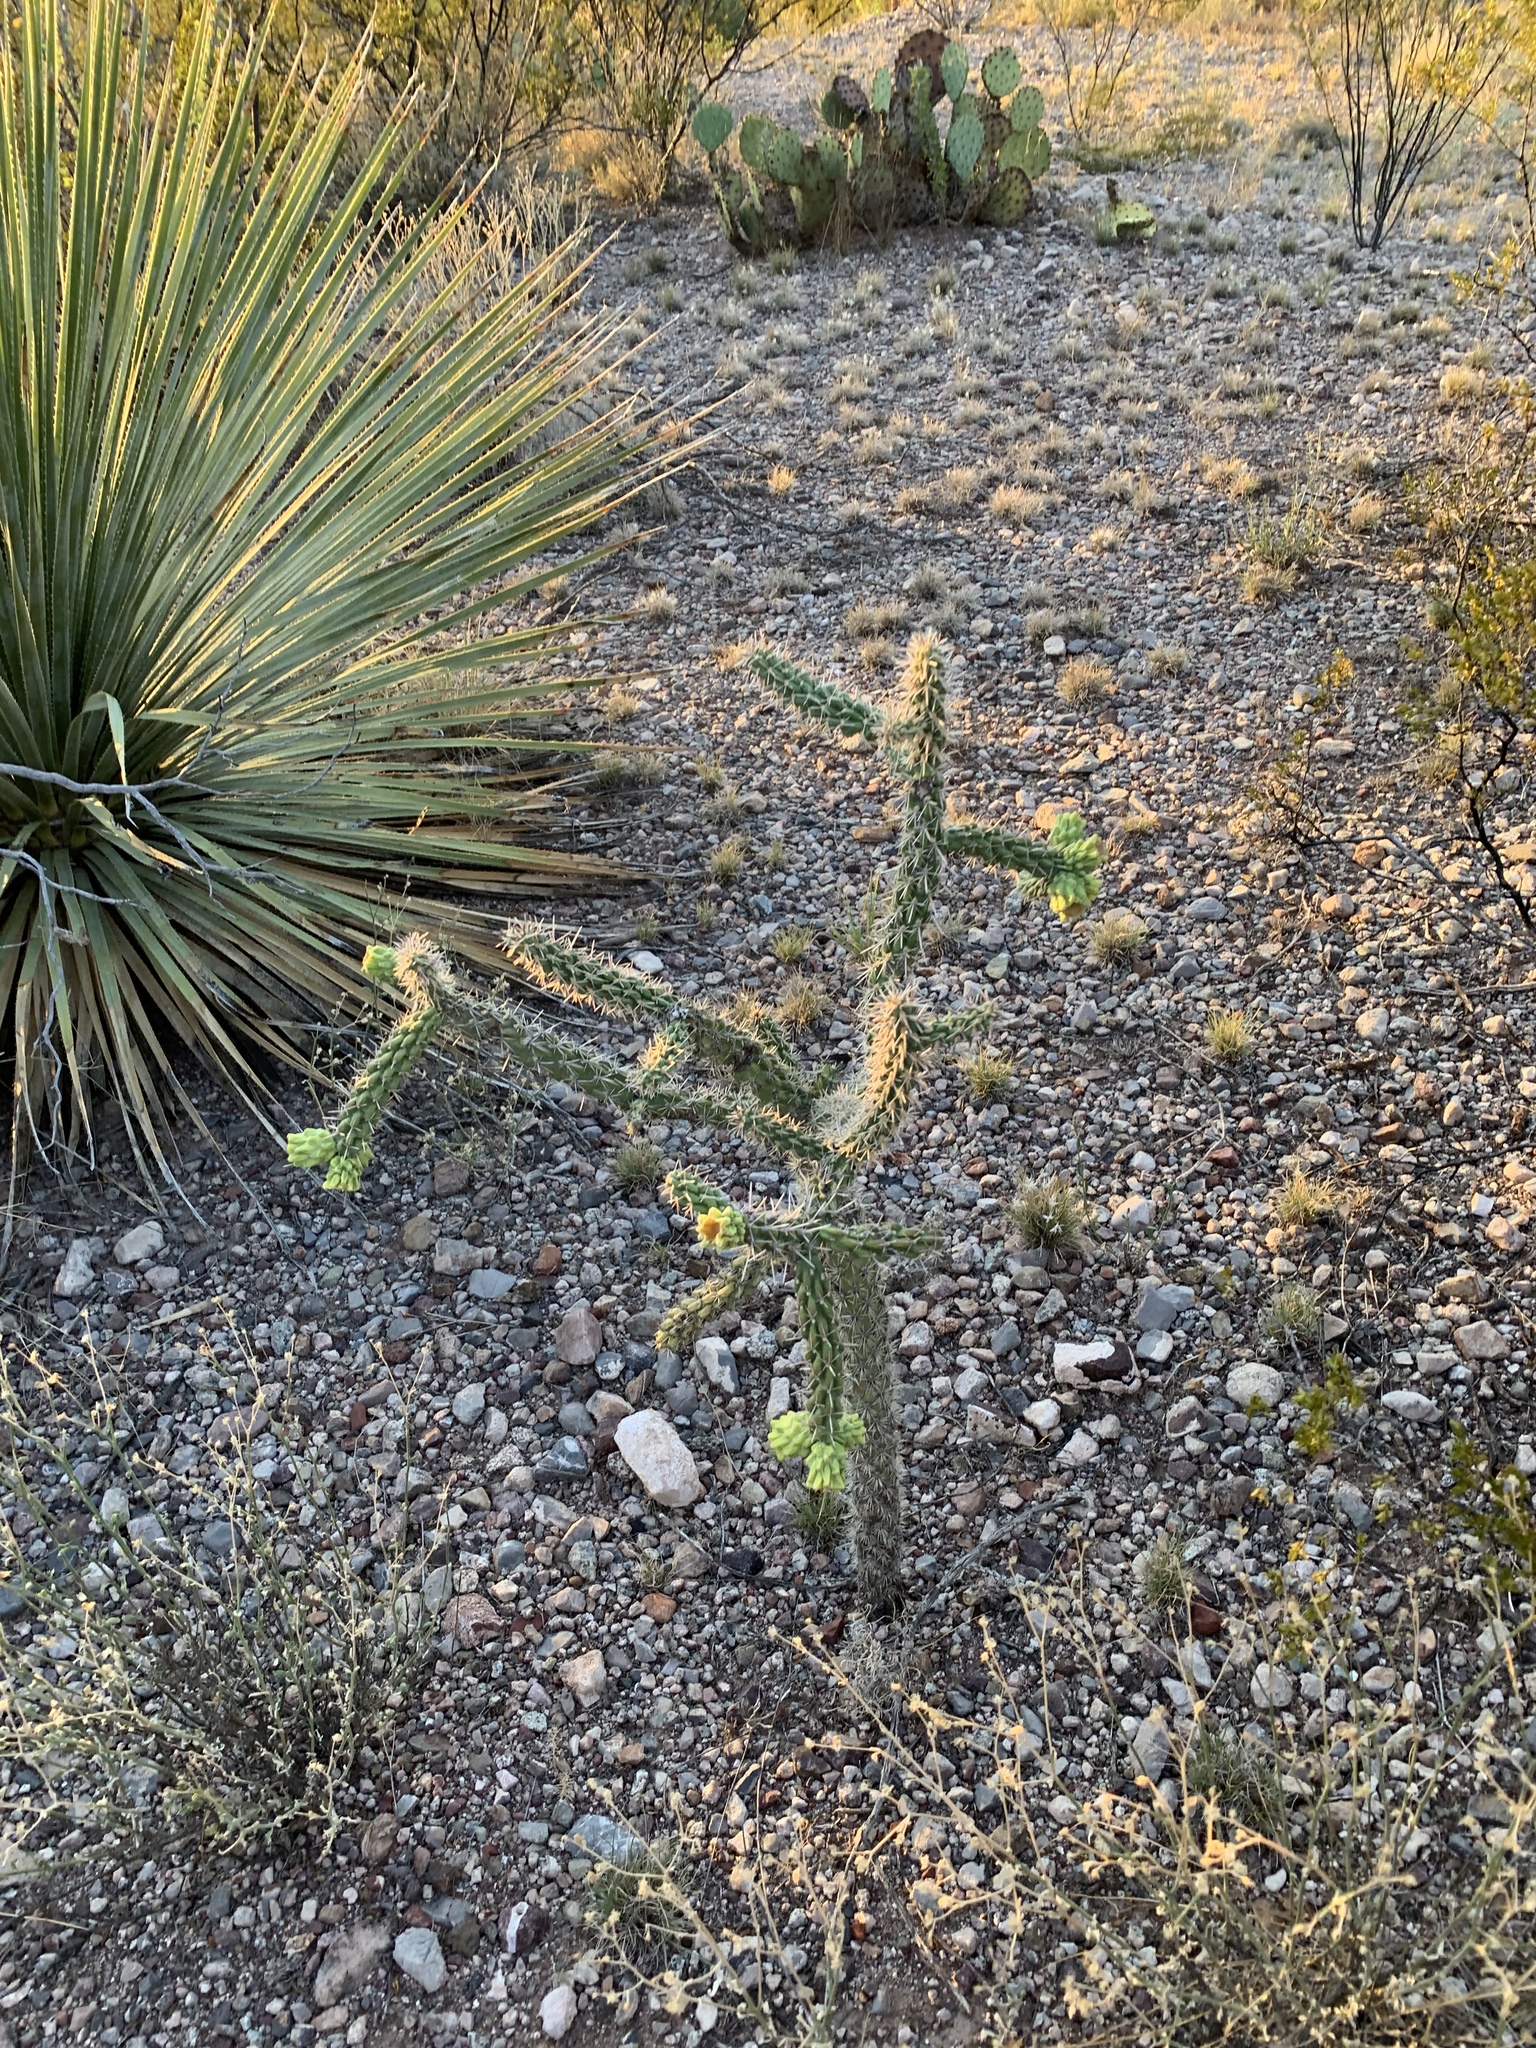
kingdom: Plantae
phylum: Tracheophyta
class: Magnoliopsida
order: Caryophyllales
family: Cactaceae
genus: Cylindropuntia
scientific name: Cylindropuntia imbricata
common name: Candelabrum cactus
